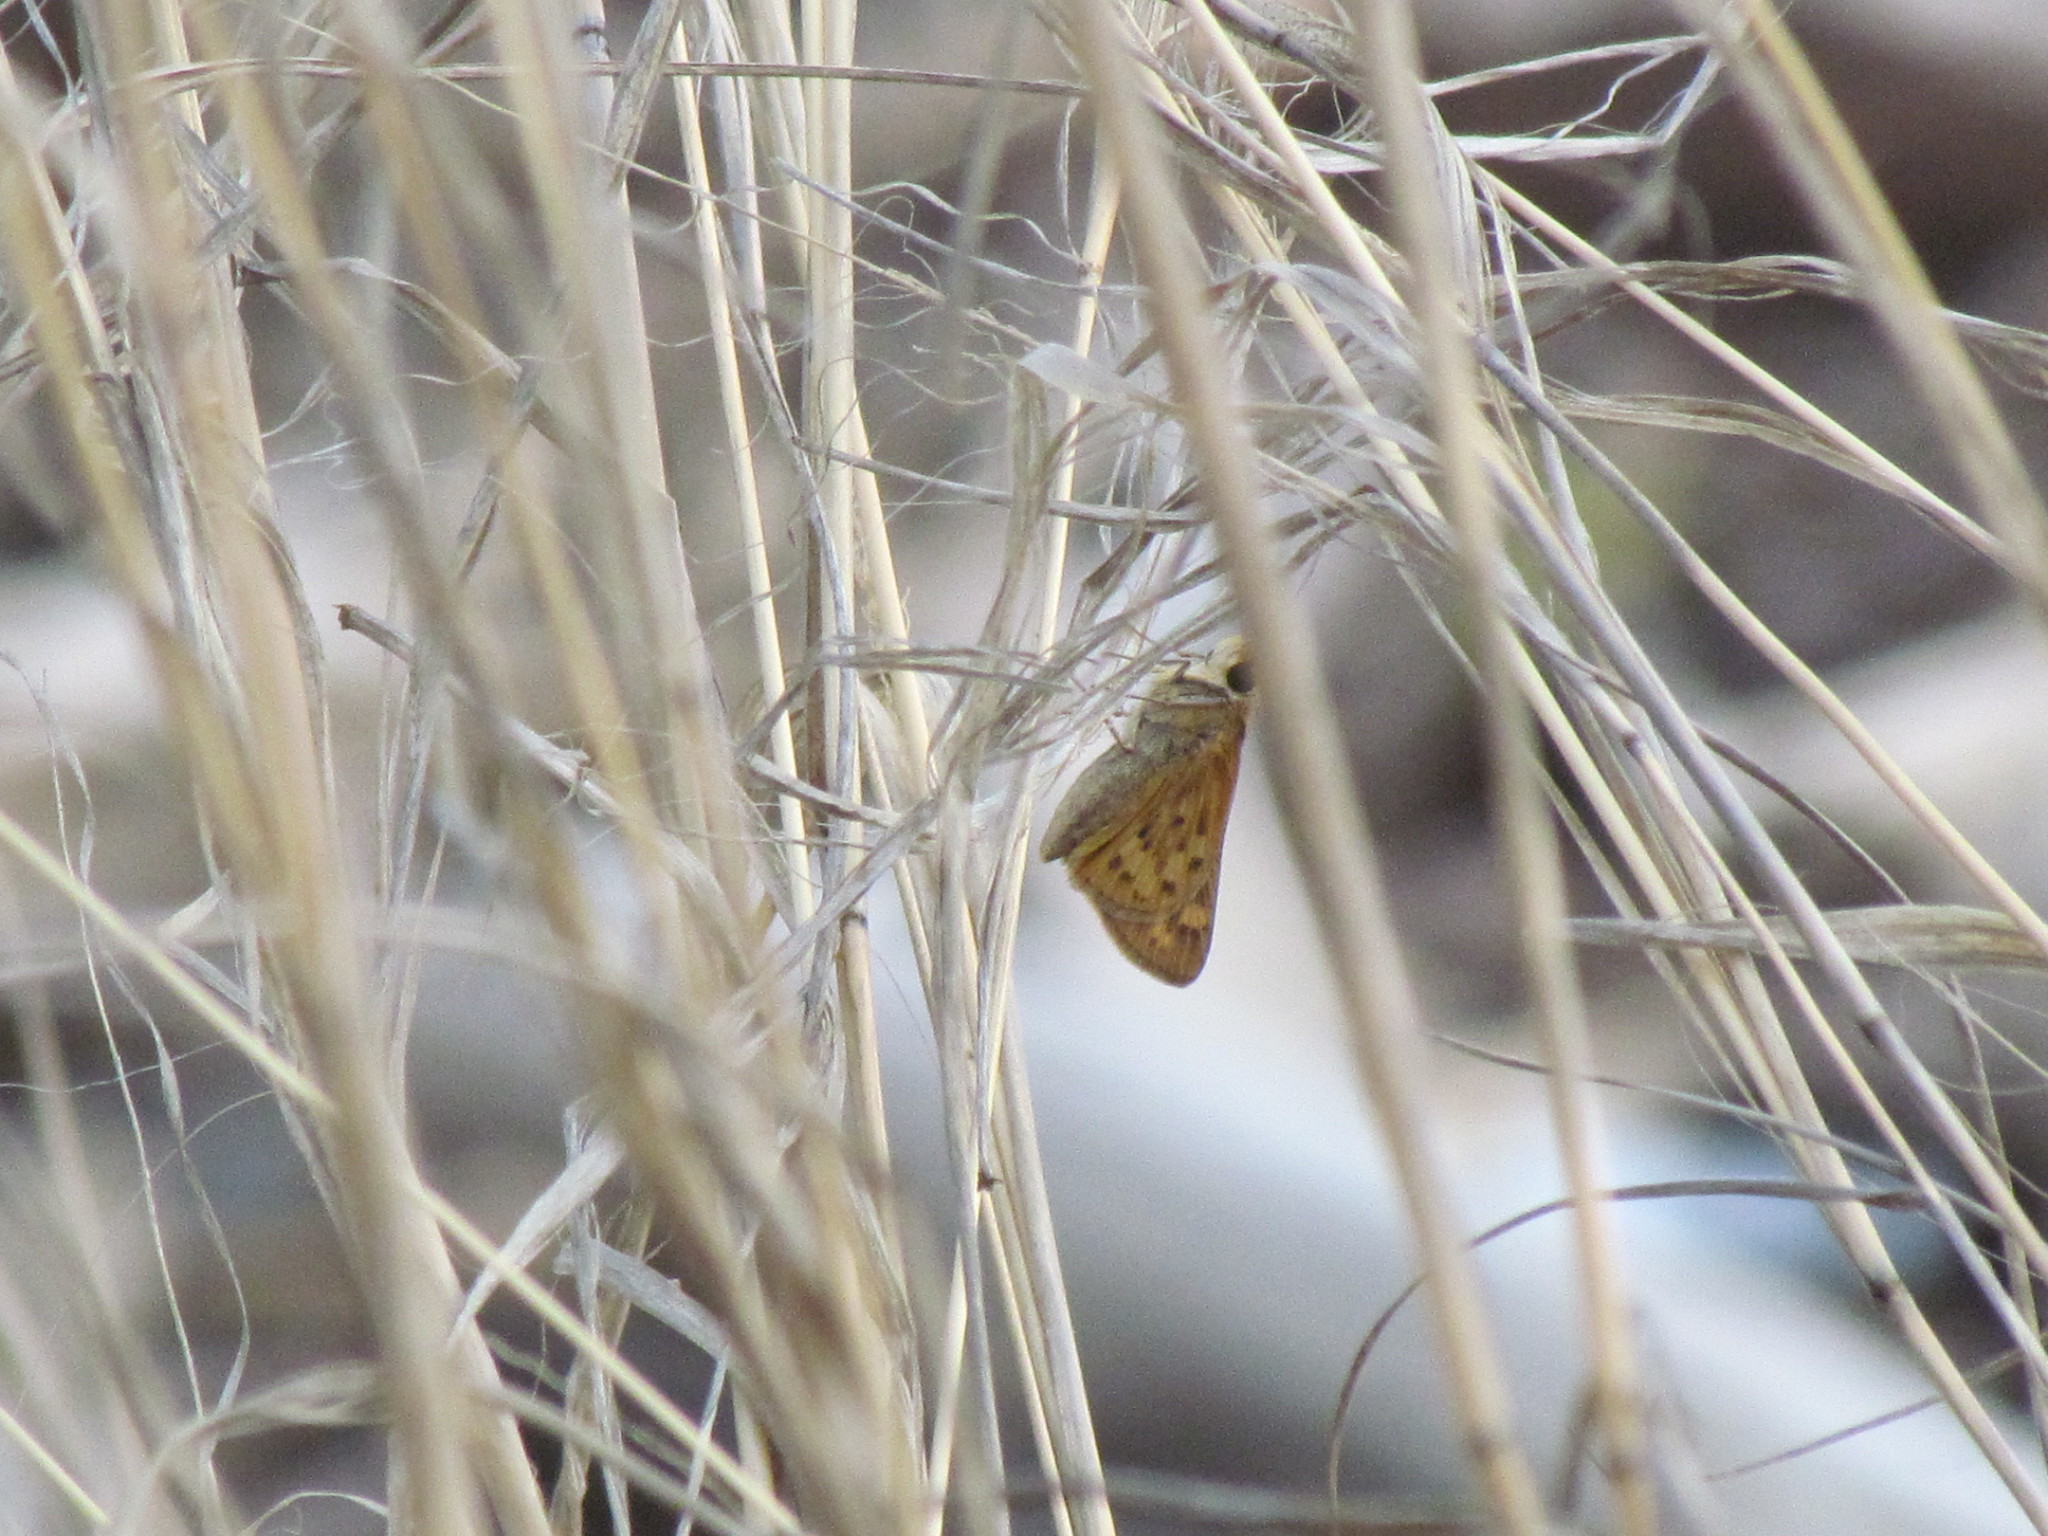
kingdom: Animalia
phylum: Arthropoda
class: Insecta
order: Lepidoptera
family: Hesperiidae
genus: Hylephila
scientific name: Hylephila phyleus
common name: Fiery skipper
